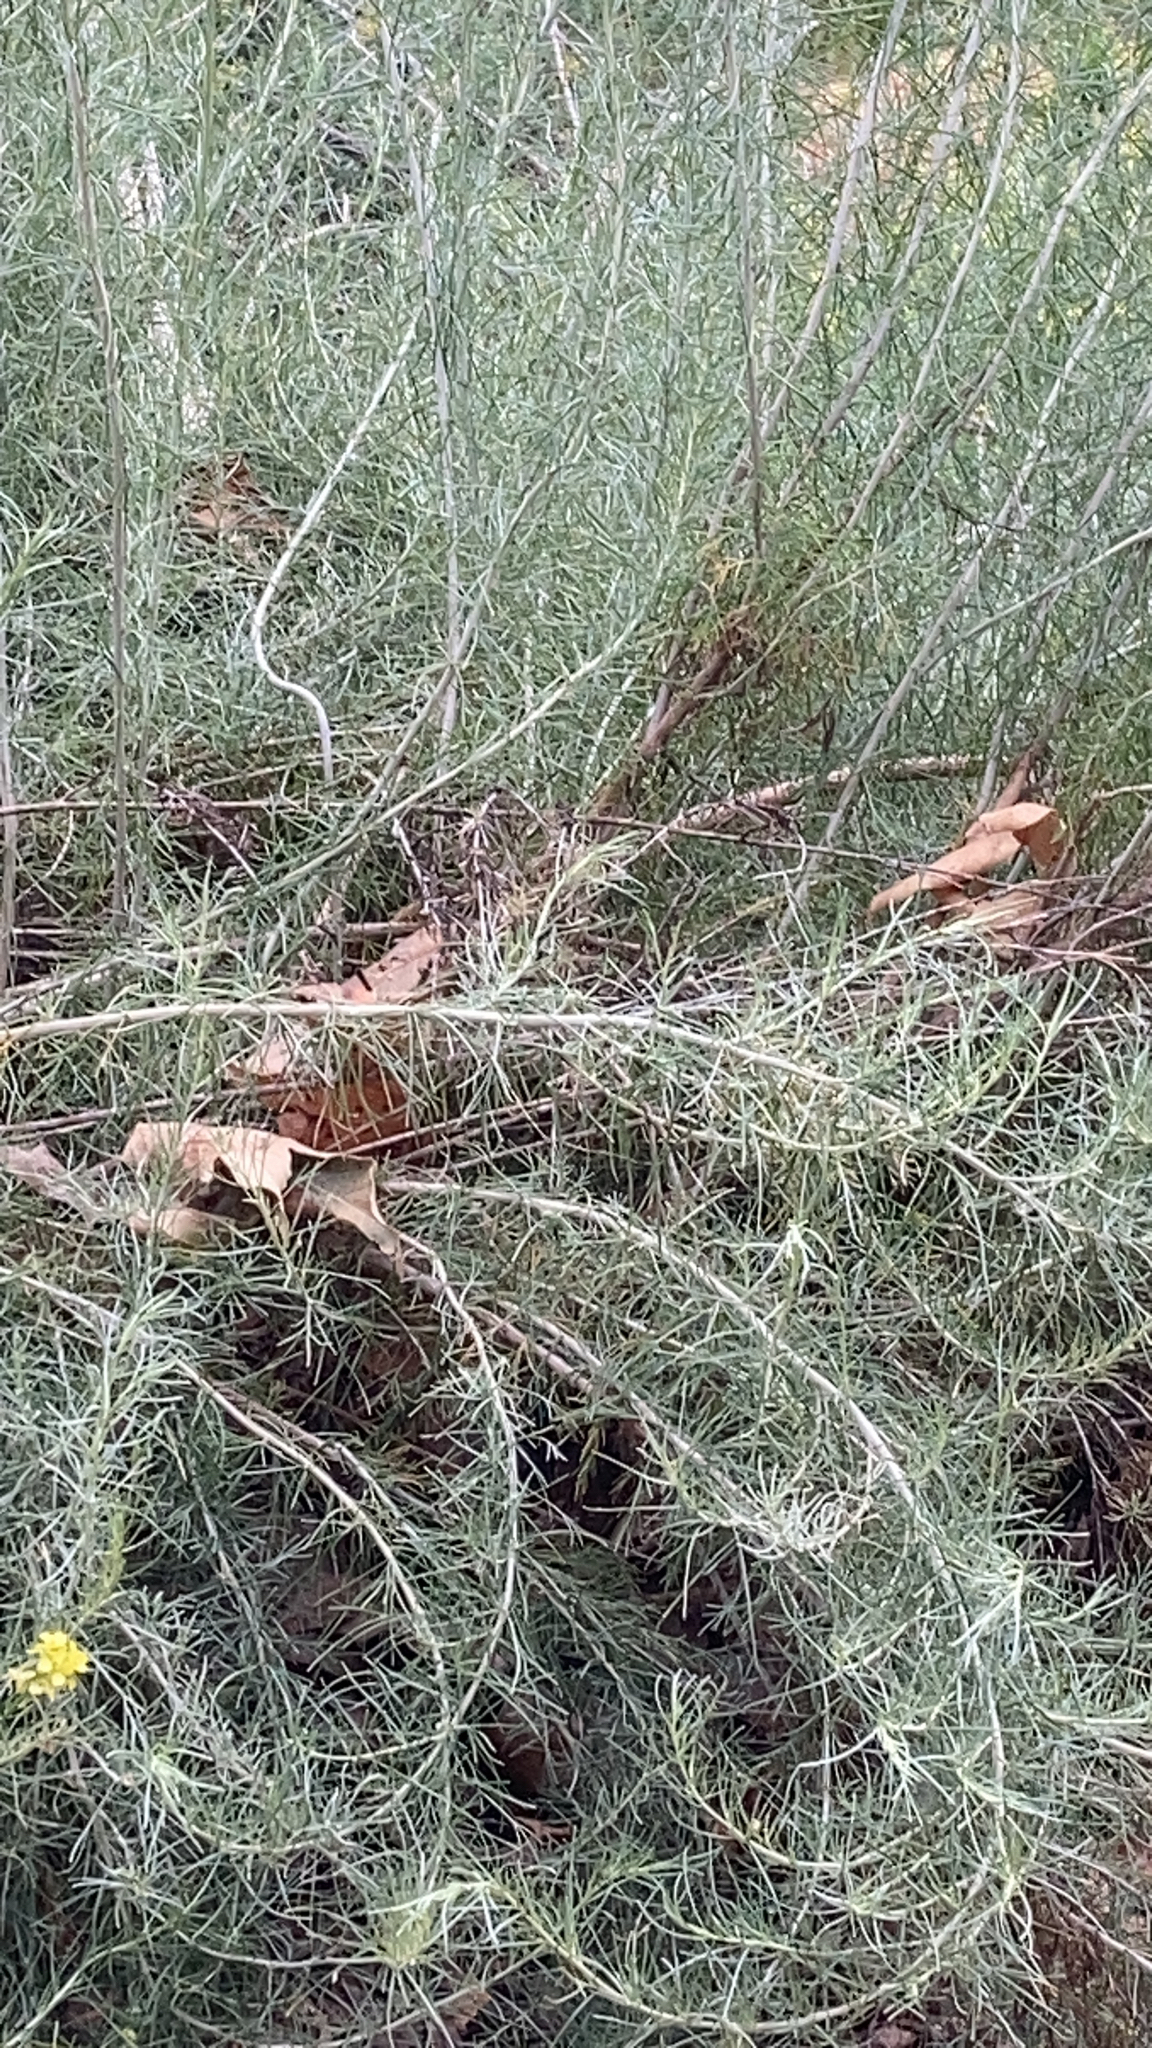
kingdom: Plantae
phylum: Tracheophyta
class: Magnoliopsida
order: Asterales
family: Asteraceae
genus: Artemisia
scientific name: Artemisia californica
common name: California sagebrush
